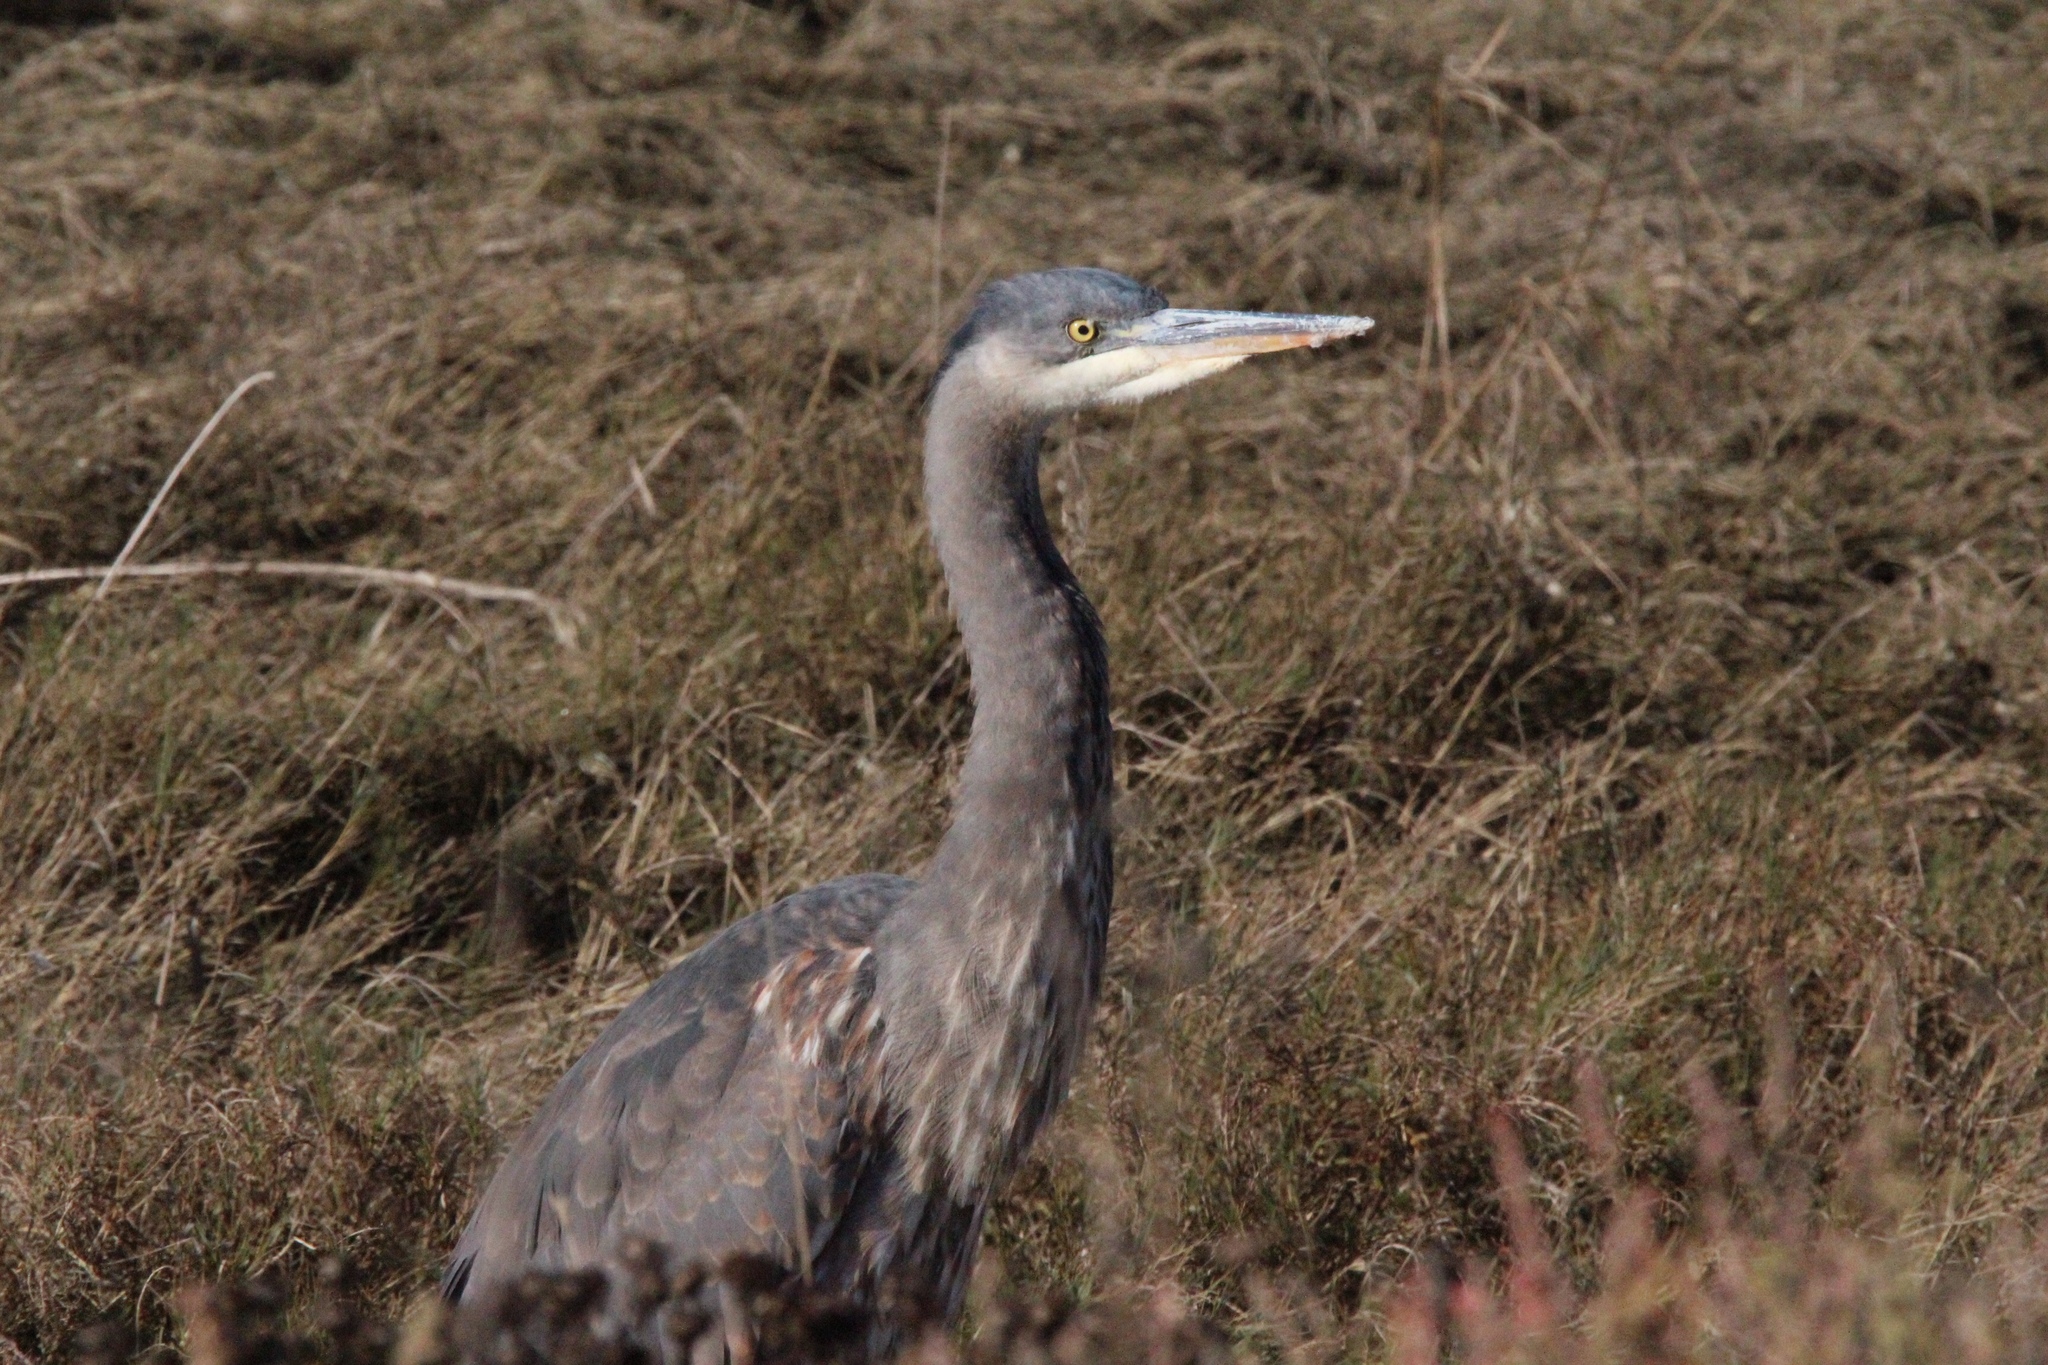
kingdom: Animalia
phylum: Chordata
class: Aves
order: Pelecaniformes
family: Ardeidae
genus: Ardea
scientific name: Ardea herodias
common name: Great blue heron
